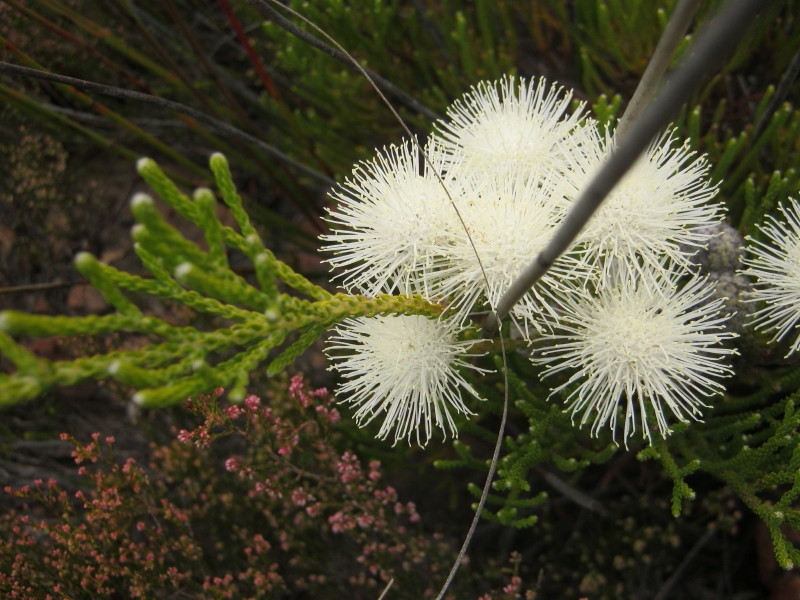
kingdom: Plantae
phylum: Tracheophyta
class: Magnoliopsida
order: Bruniales
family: Bruniaceae
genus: Brunia
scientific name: Brunia noduliflora
